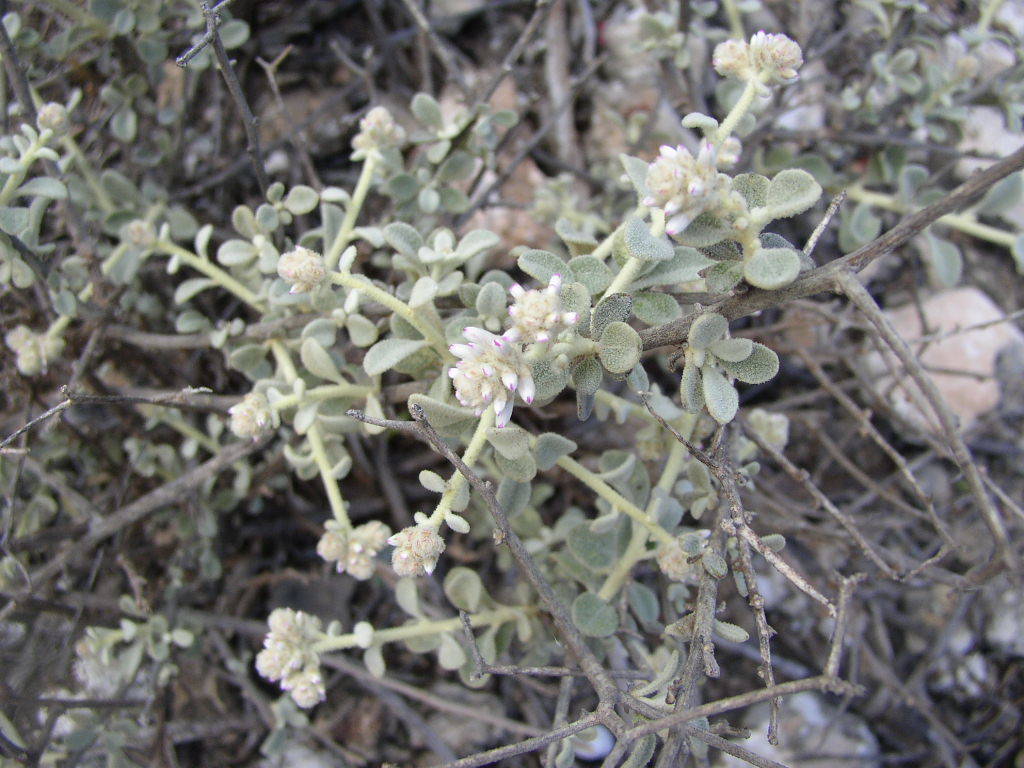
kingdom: Plantae
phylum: Tracheophyta
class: Magnoliopsida
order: Caryophyllales
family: Amaranthaceae
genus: Ptilotus
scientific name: Ptilotus obovatus
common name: Cottonbush
